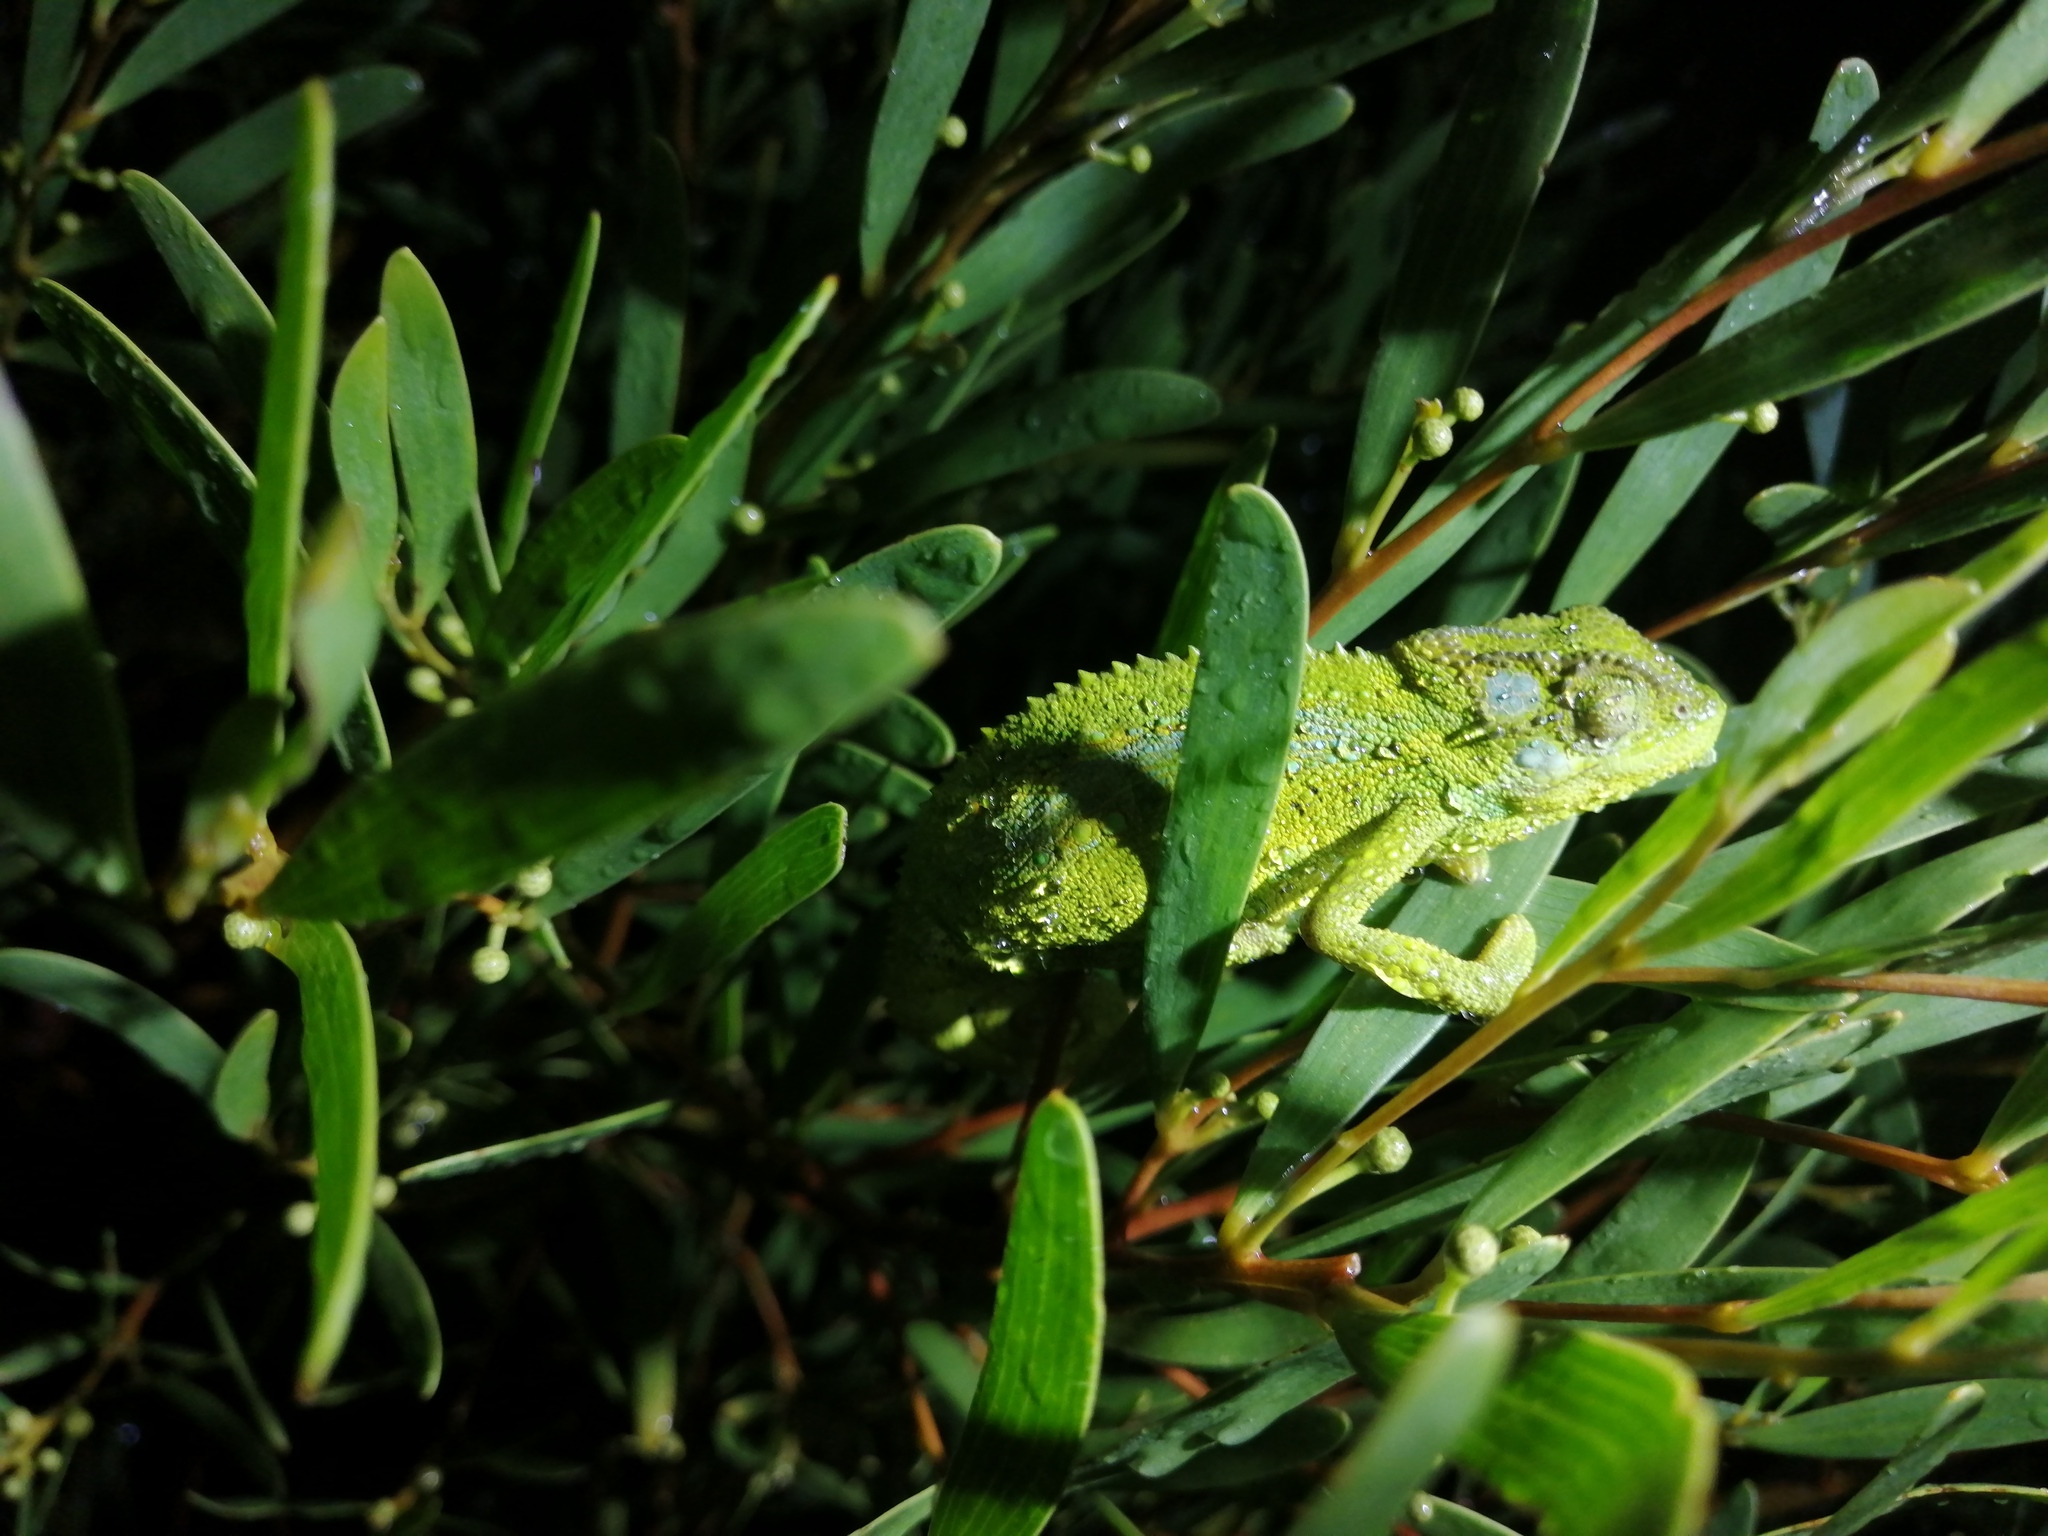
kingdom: Animalia
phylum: Chordata
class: Squamata
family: Chamaeleonidae
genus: Bradypodion
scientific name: Bradypodion pumilum
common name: Cape dwarf chameleon
